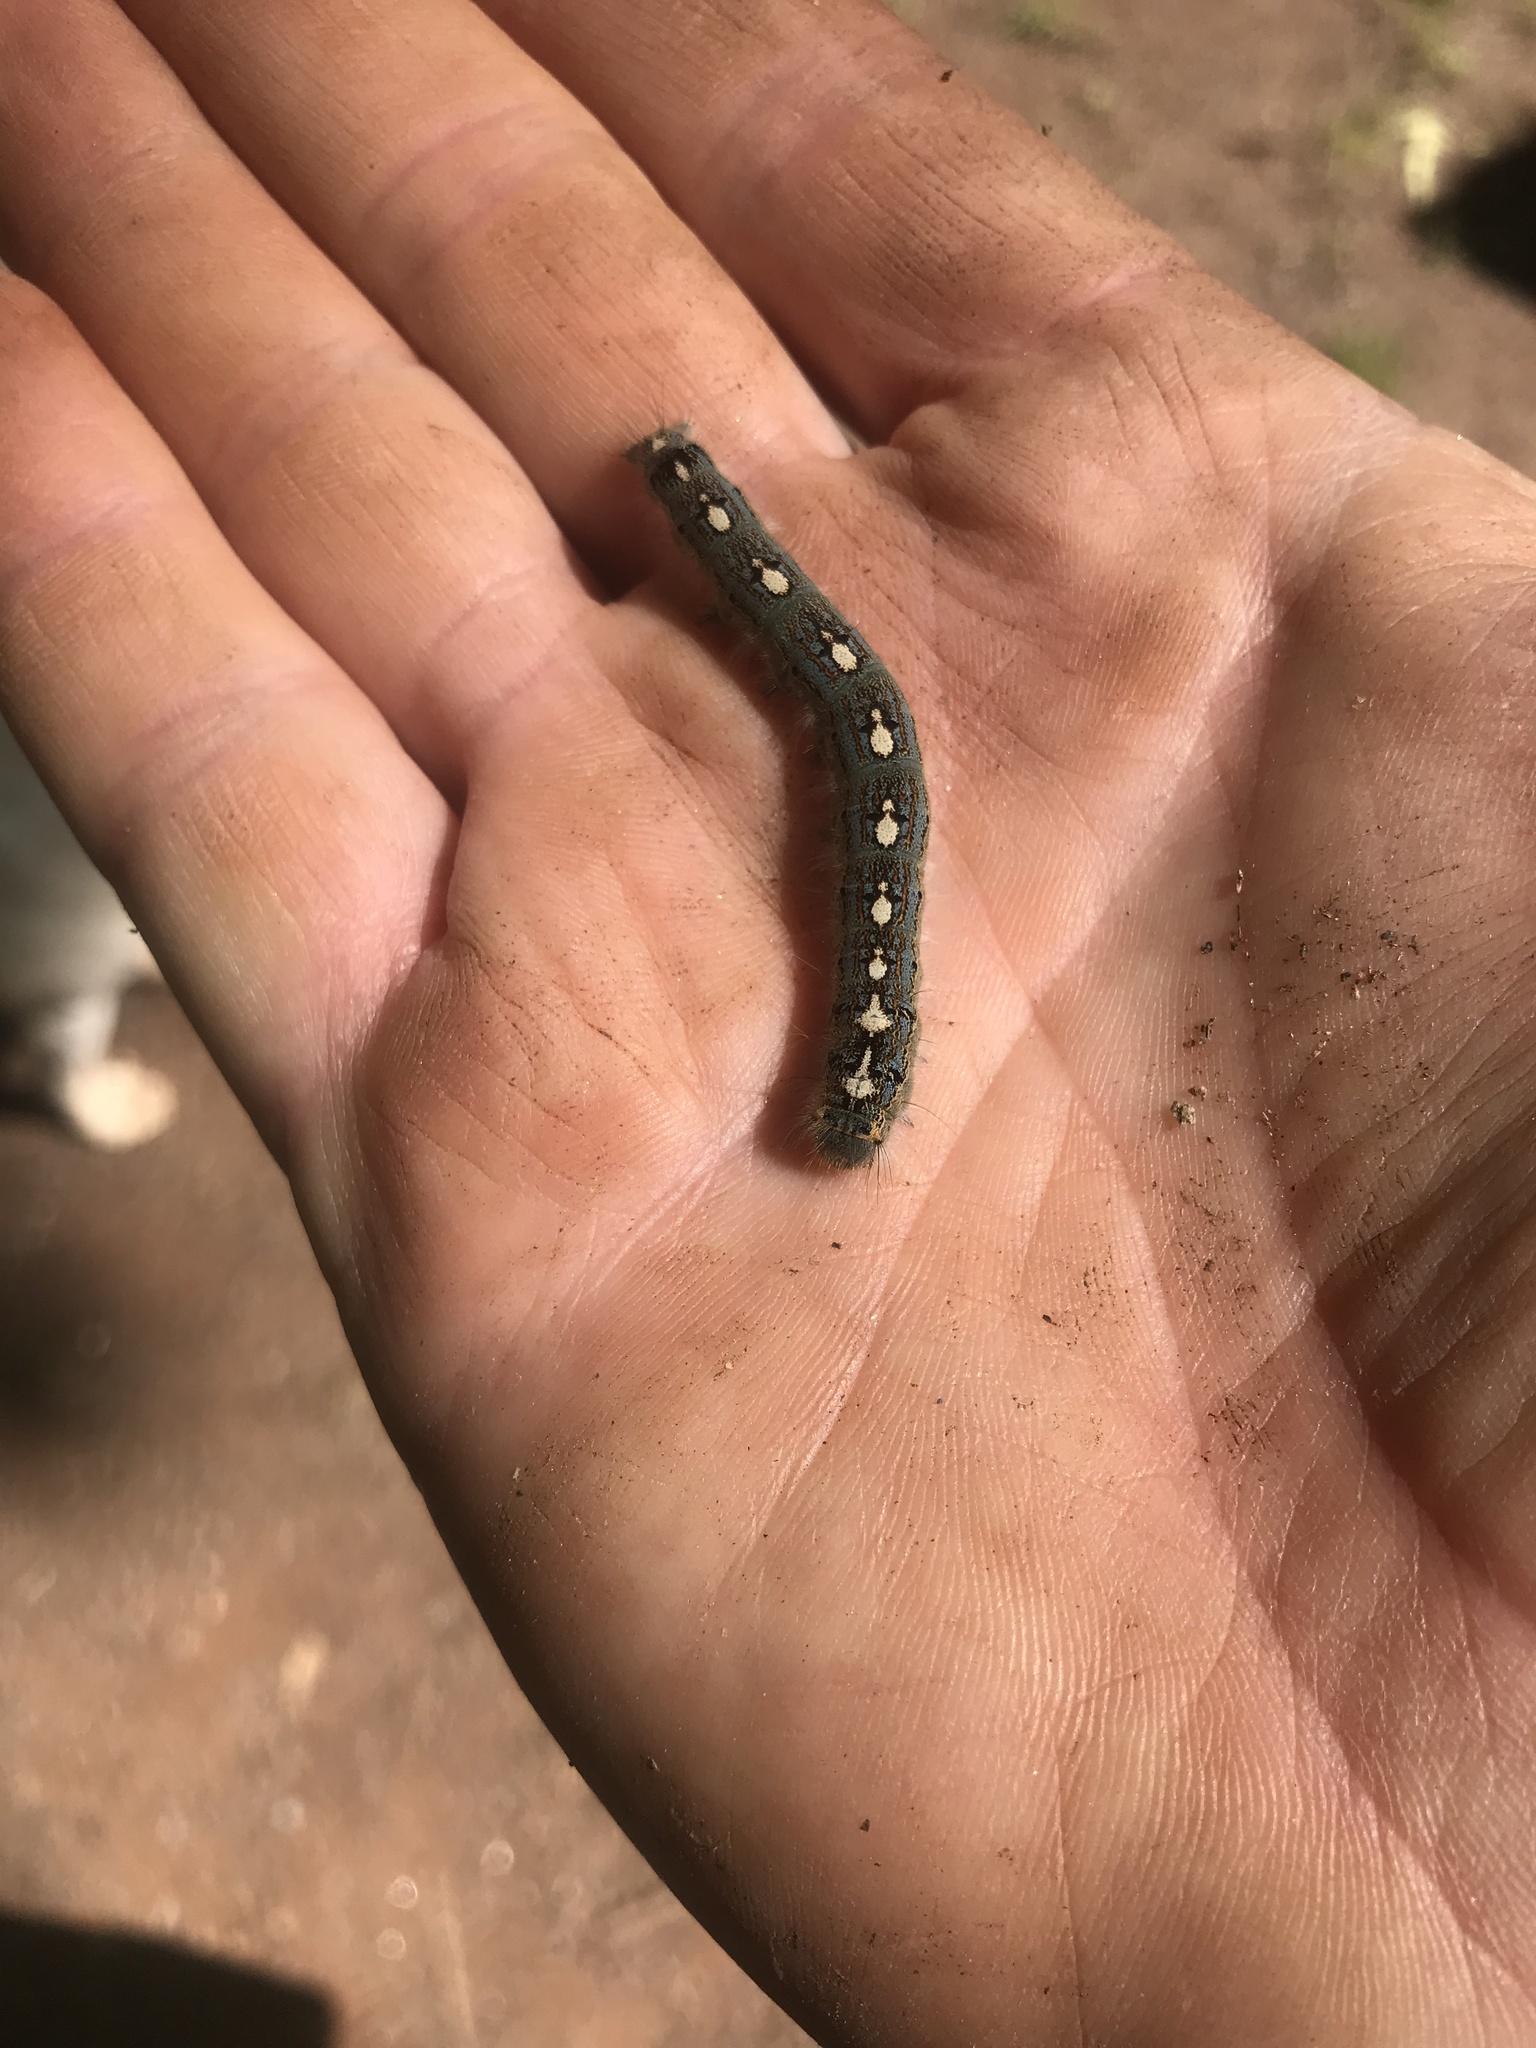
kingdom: Animalia
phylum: Arthropoda
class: Insecta
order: Lepidoptera
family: Lasiocampidae
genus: Malacosoma
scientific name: Malacosoma disstria
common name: Forest tent caterpillar
